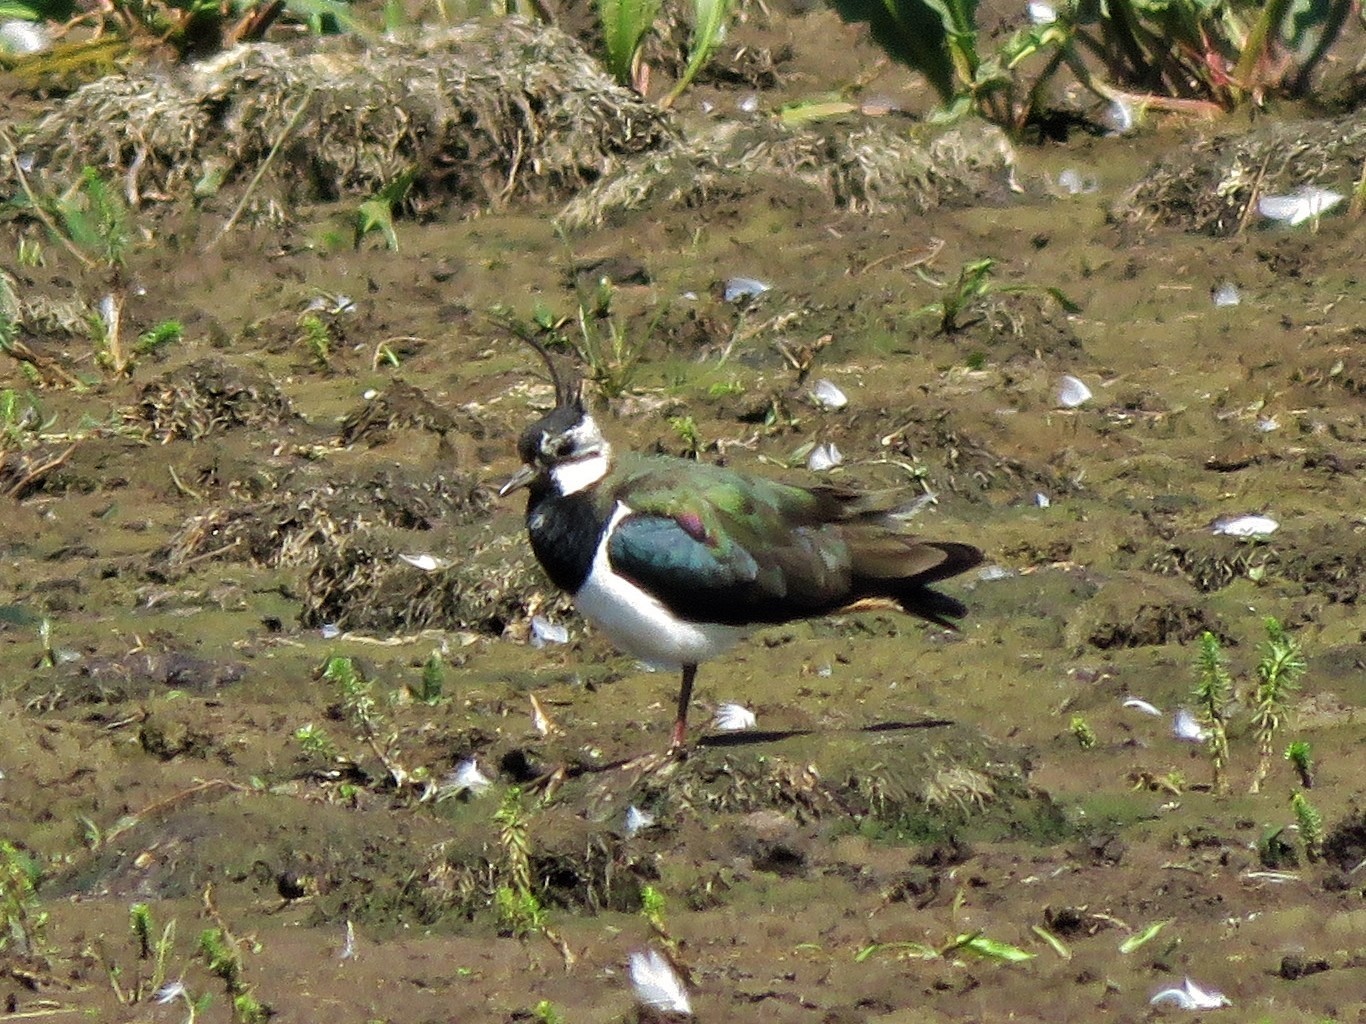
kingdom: Animalia
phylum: Chordata
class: Aves
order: Charadriiformes
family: Charadriidae
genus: Vanellus
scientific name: Vanellus vanellus
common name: Northern lapwing
